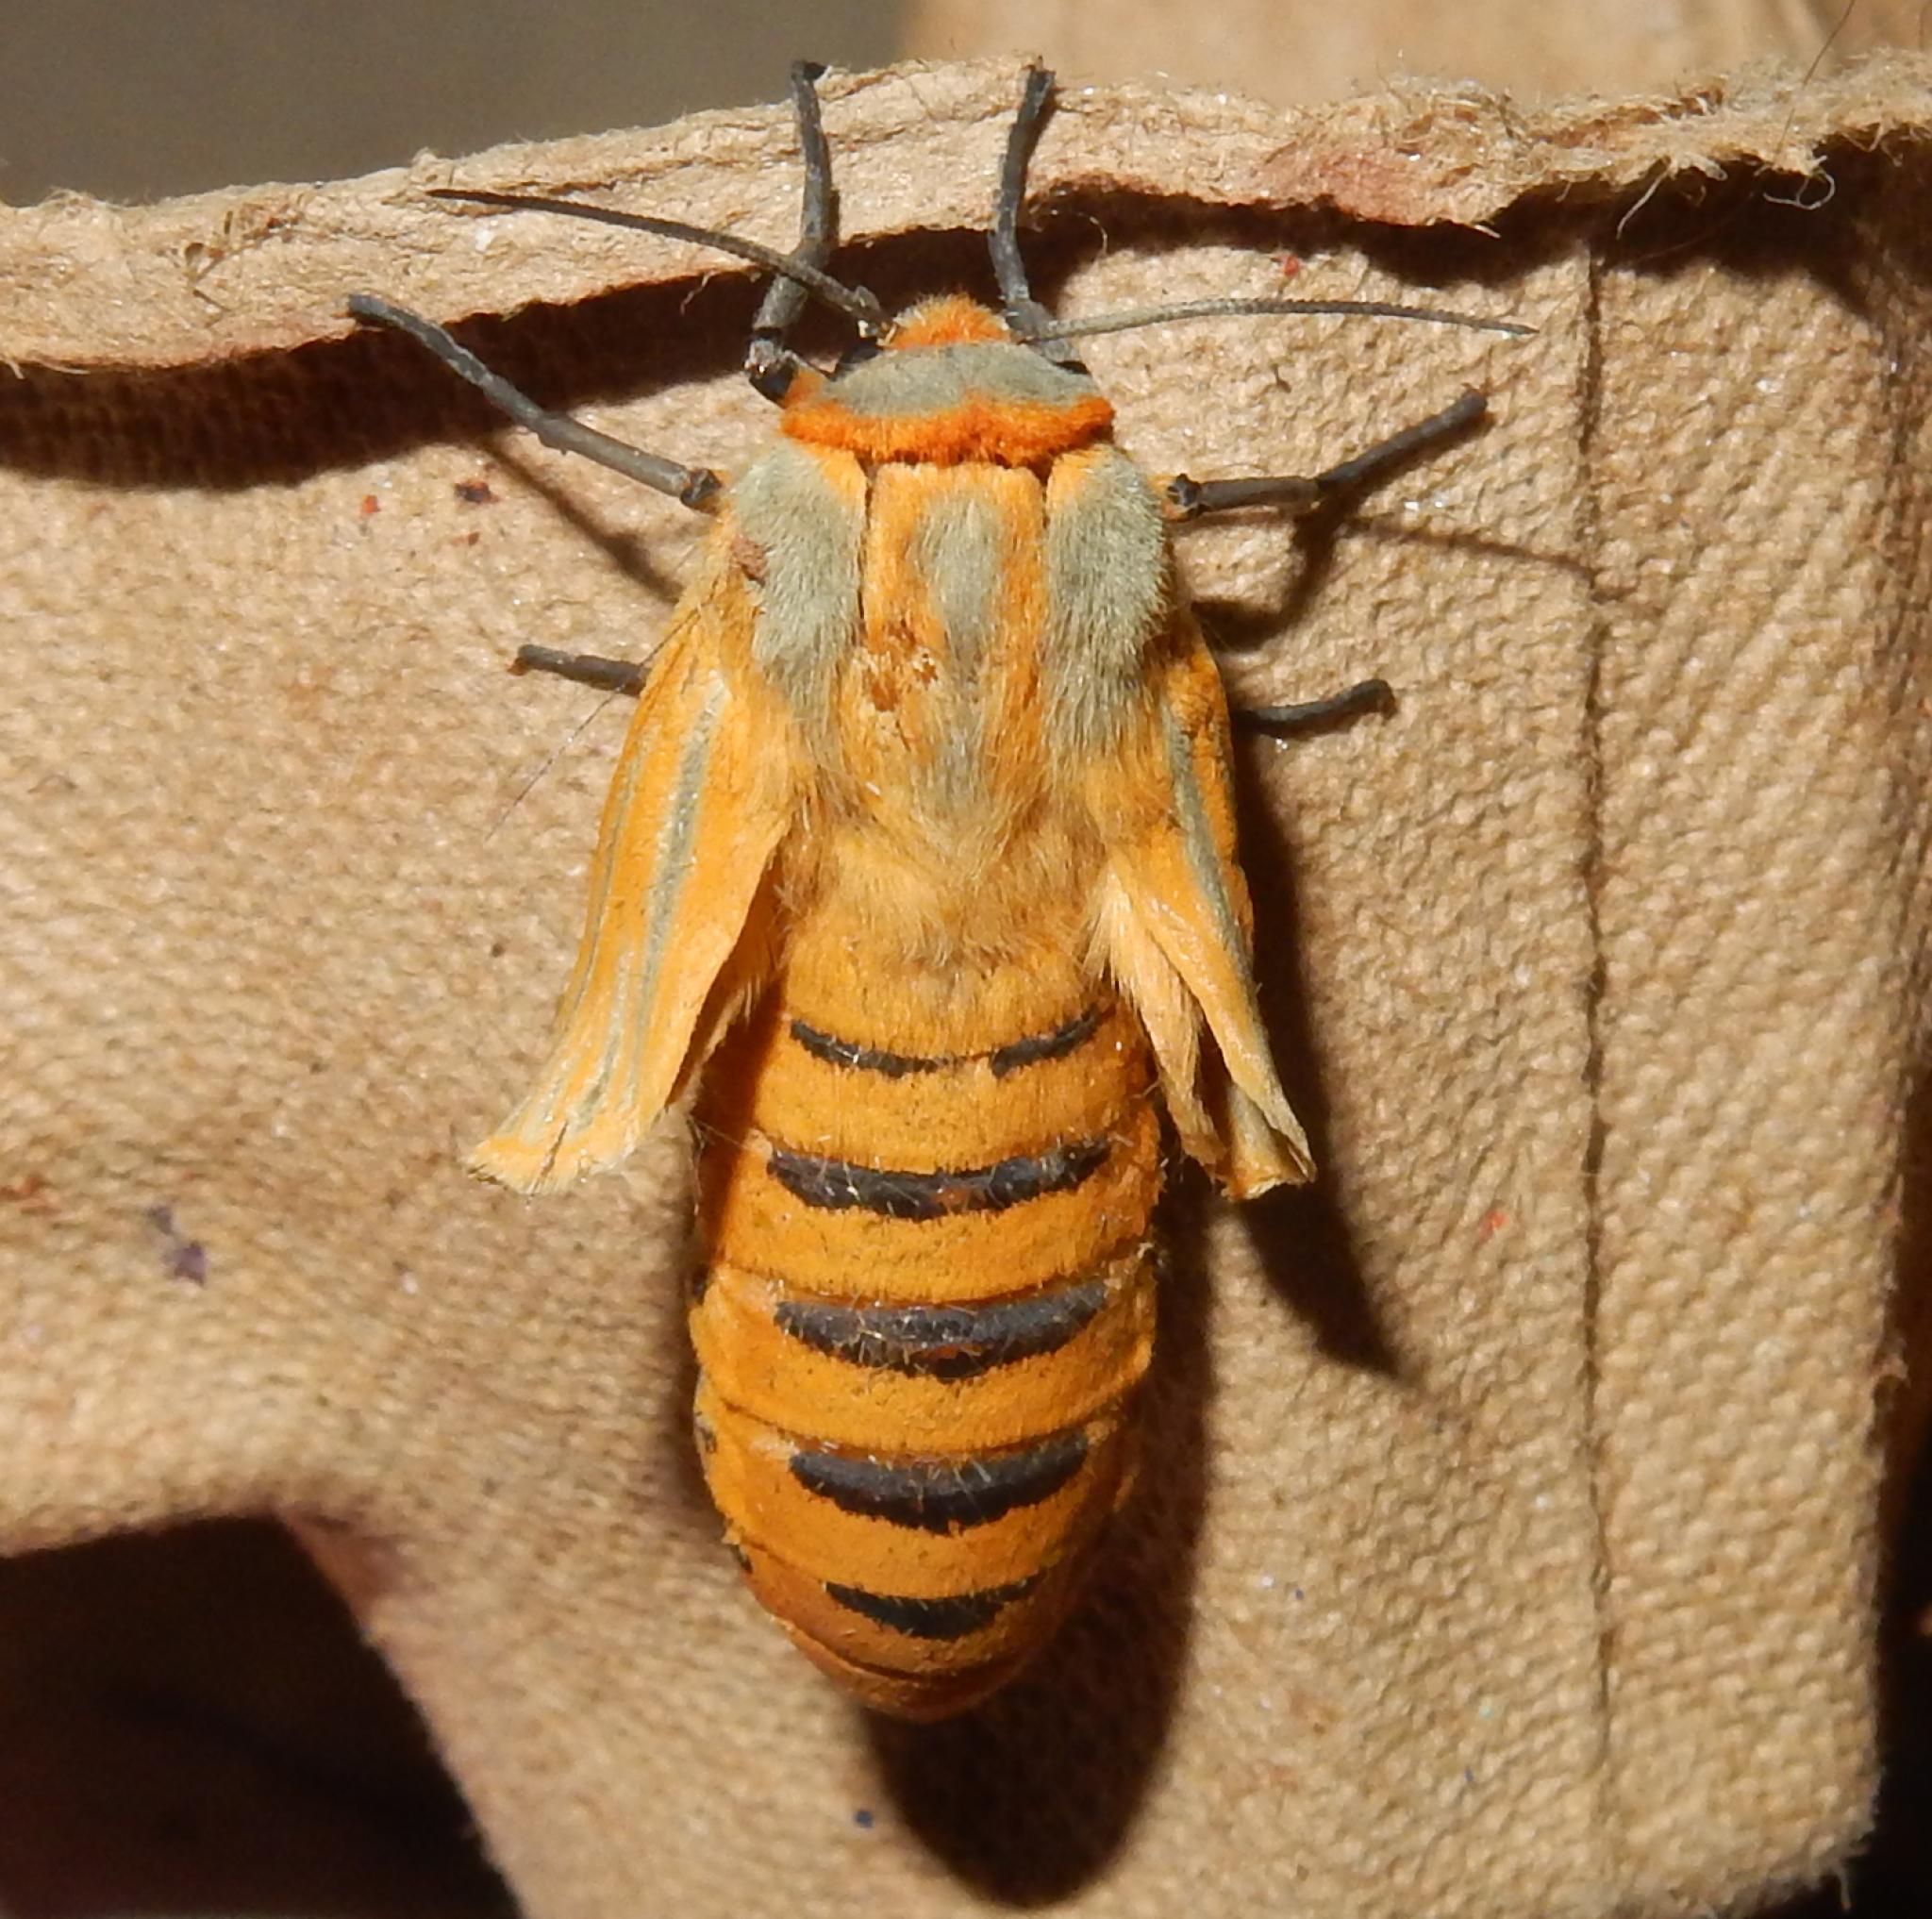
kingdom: Animalia
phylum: Arthropoda
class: Insecta
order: Lepidoptera
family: Erebidae
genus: Afromurzinia
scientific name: Afromurzinia lutescens
